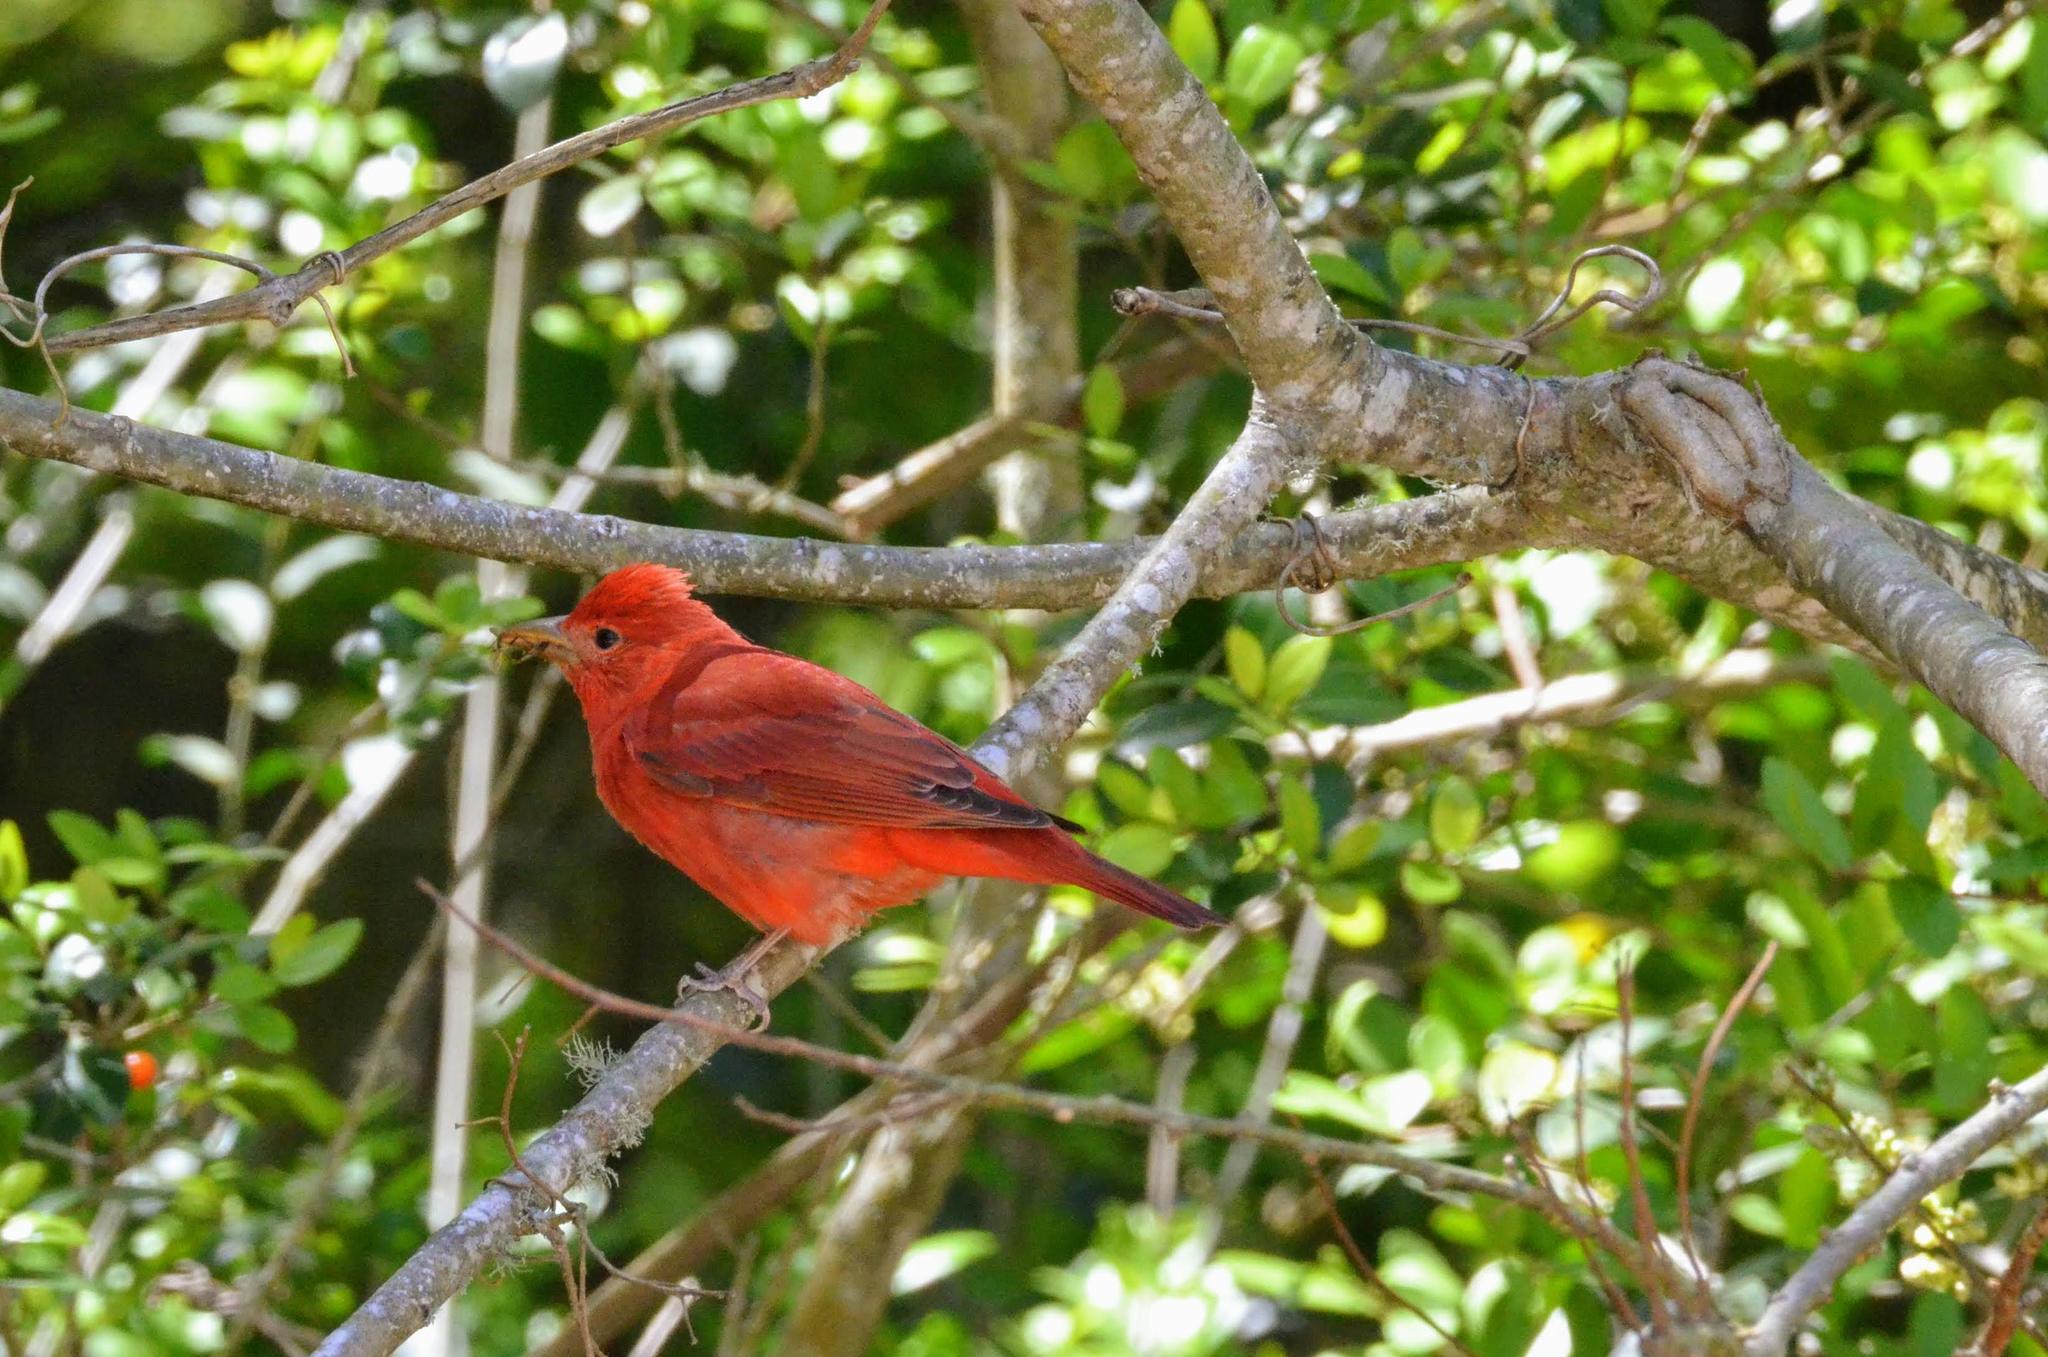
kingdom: Animalia
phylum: Chordata
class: Aves
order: Passeriformes
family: Cardinalidae
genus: Piranga
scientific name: Piranga rubra
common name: Summer tanager
